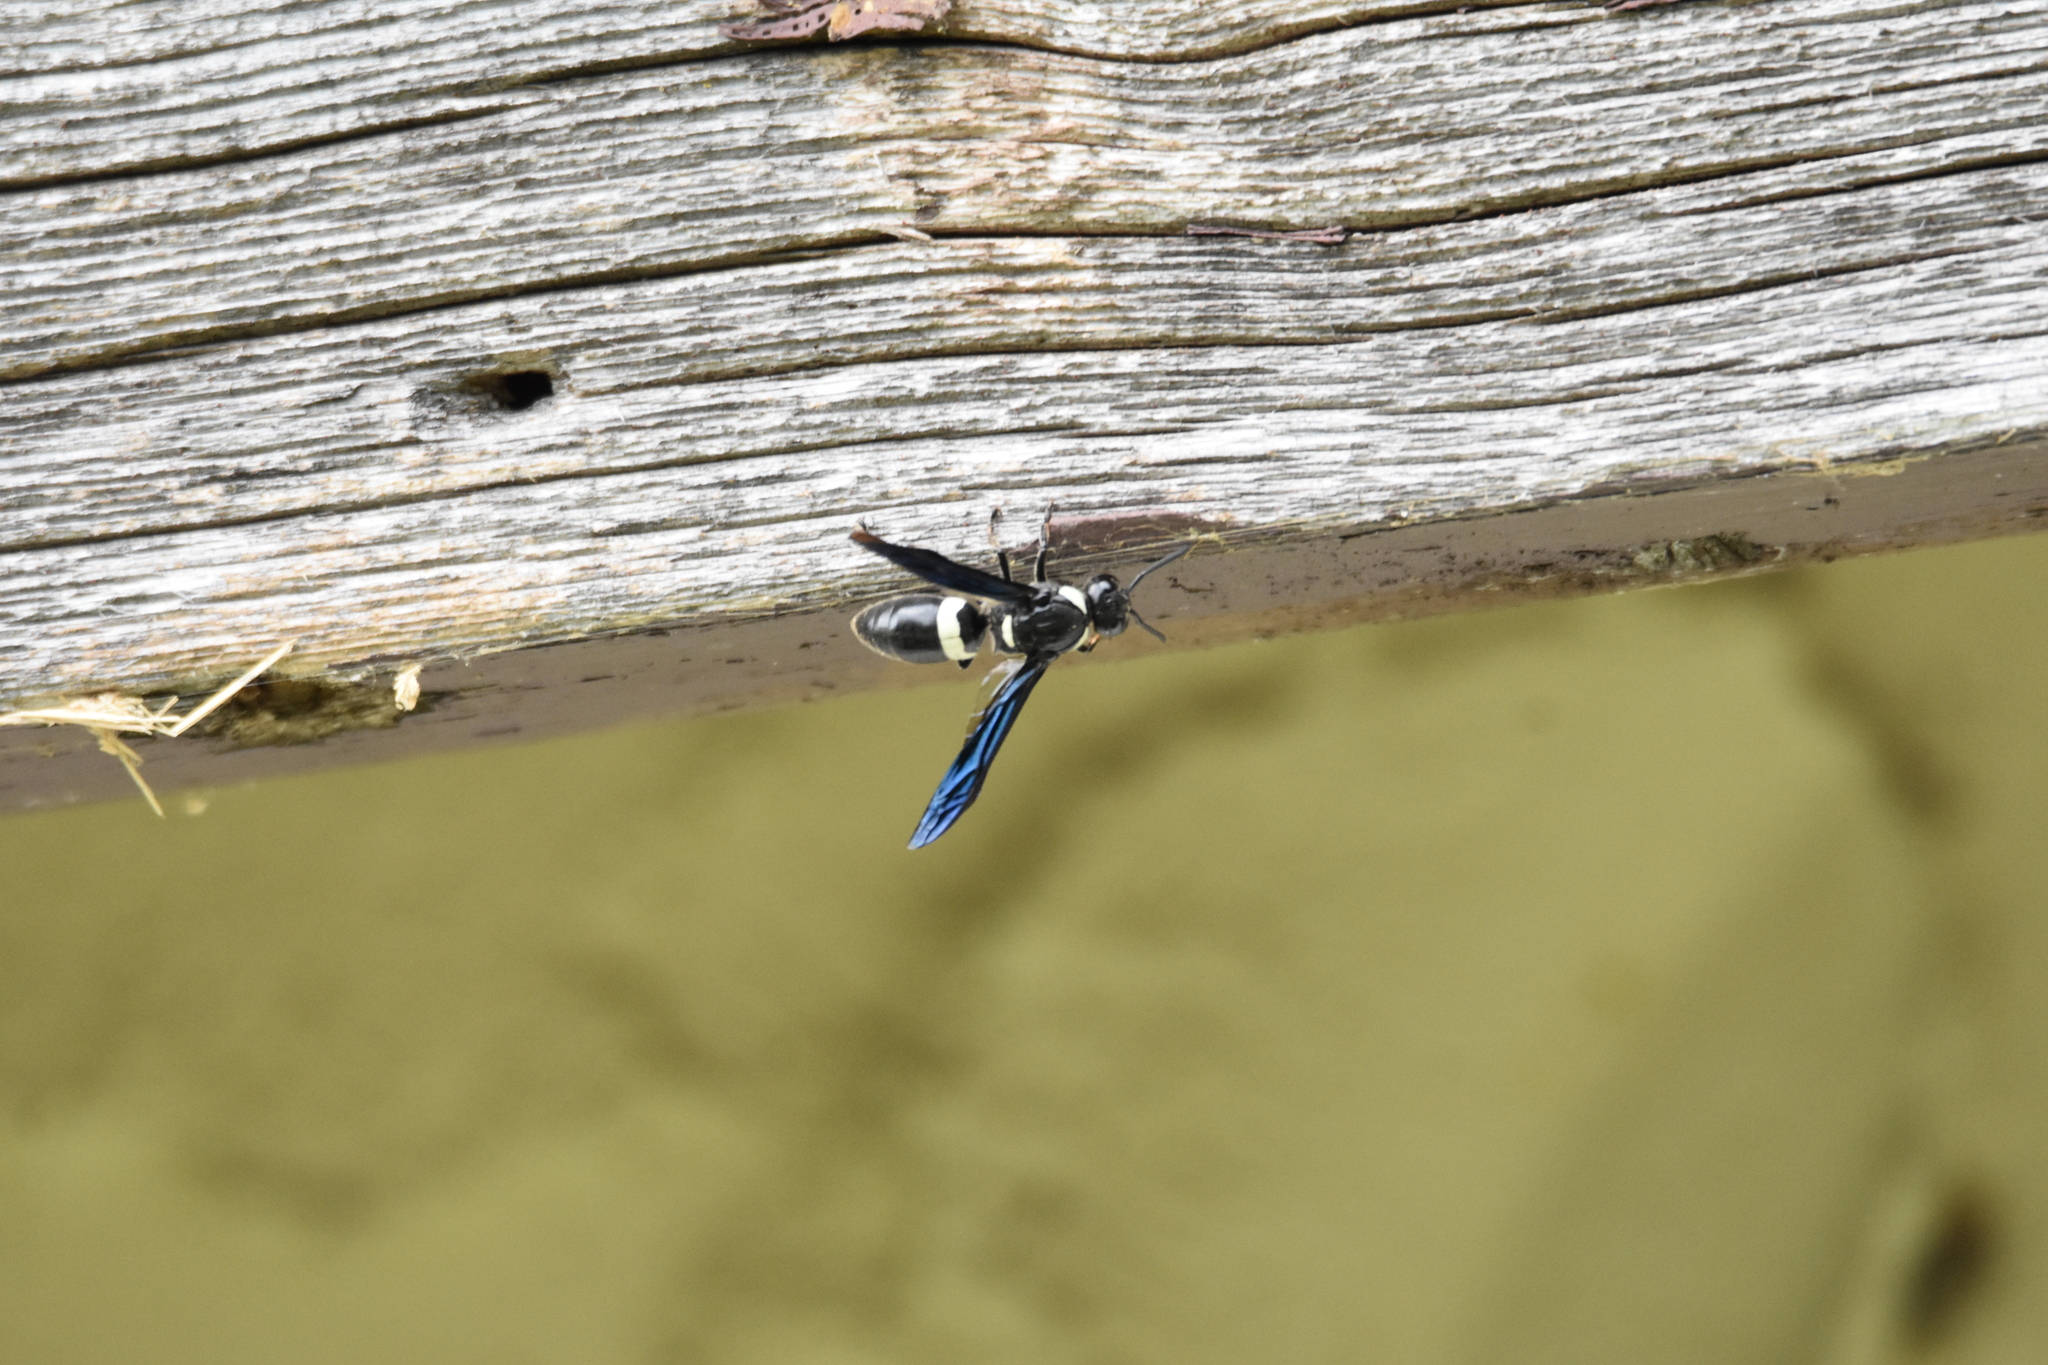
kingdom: Animalia
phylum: Arthropoda
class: Insecta
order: Hymenoptera
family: Eumenidae
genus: Monobia
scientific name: Monobia quadridens
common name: Four-toothed mason wasp
